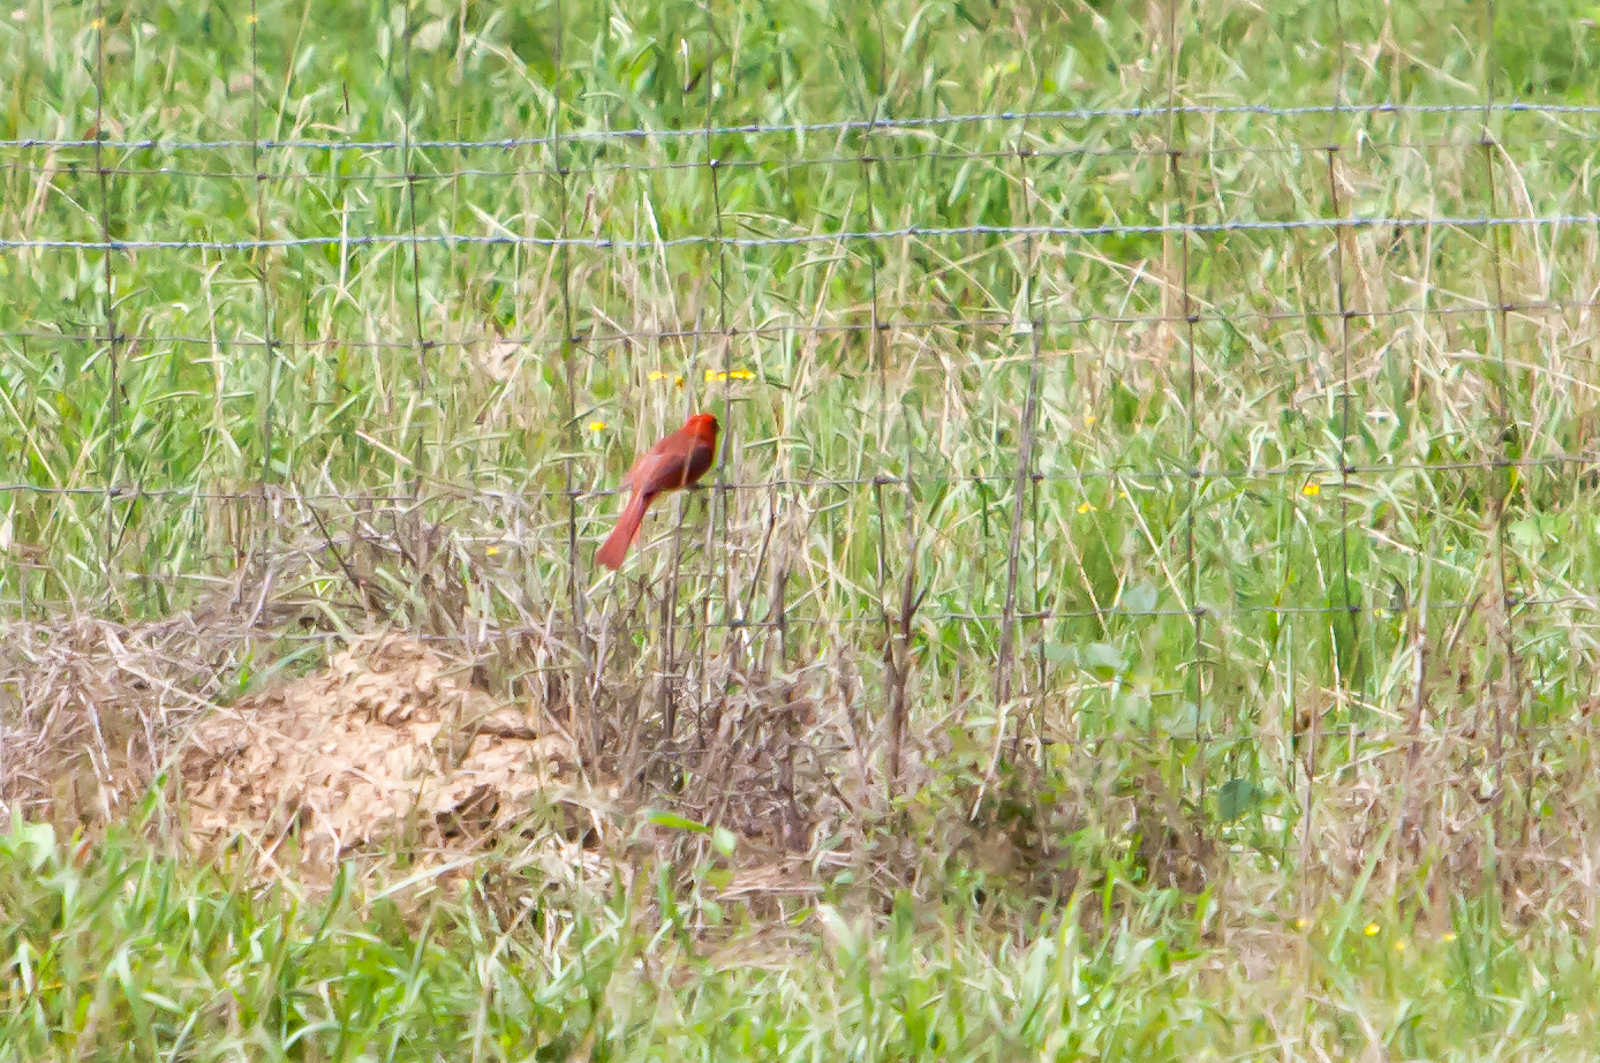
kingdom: Animalia
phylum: Chordata
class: Aves
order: Passeriformes
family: Cardinalidae
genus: Cardinalis
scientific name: Cardinalis cardinalis
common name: Northern cardinal
